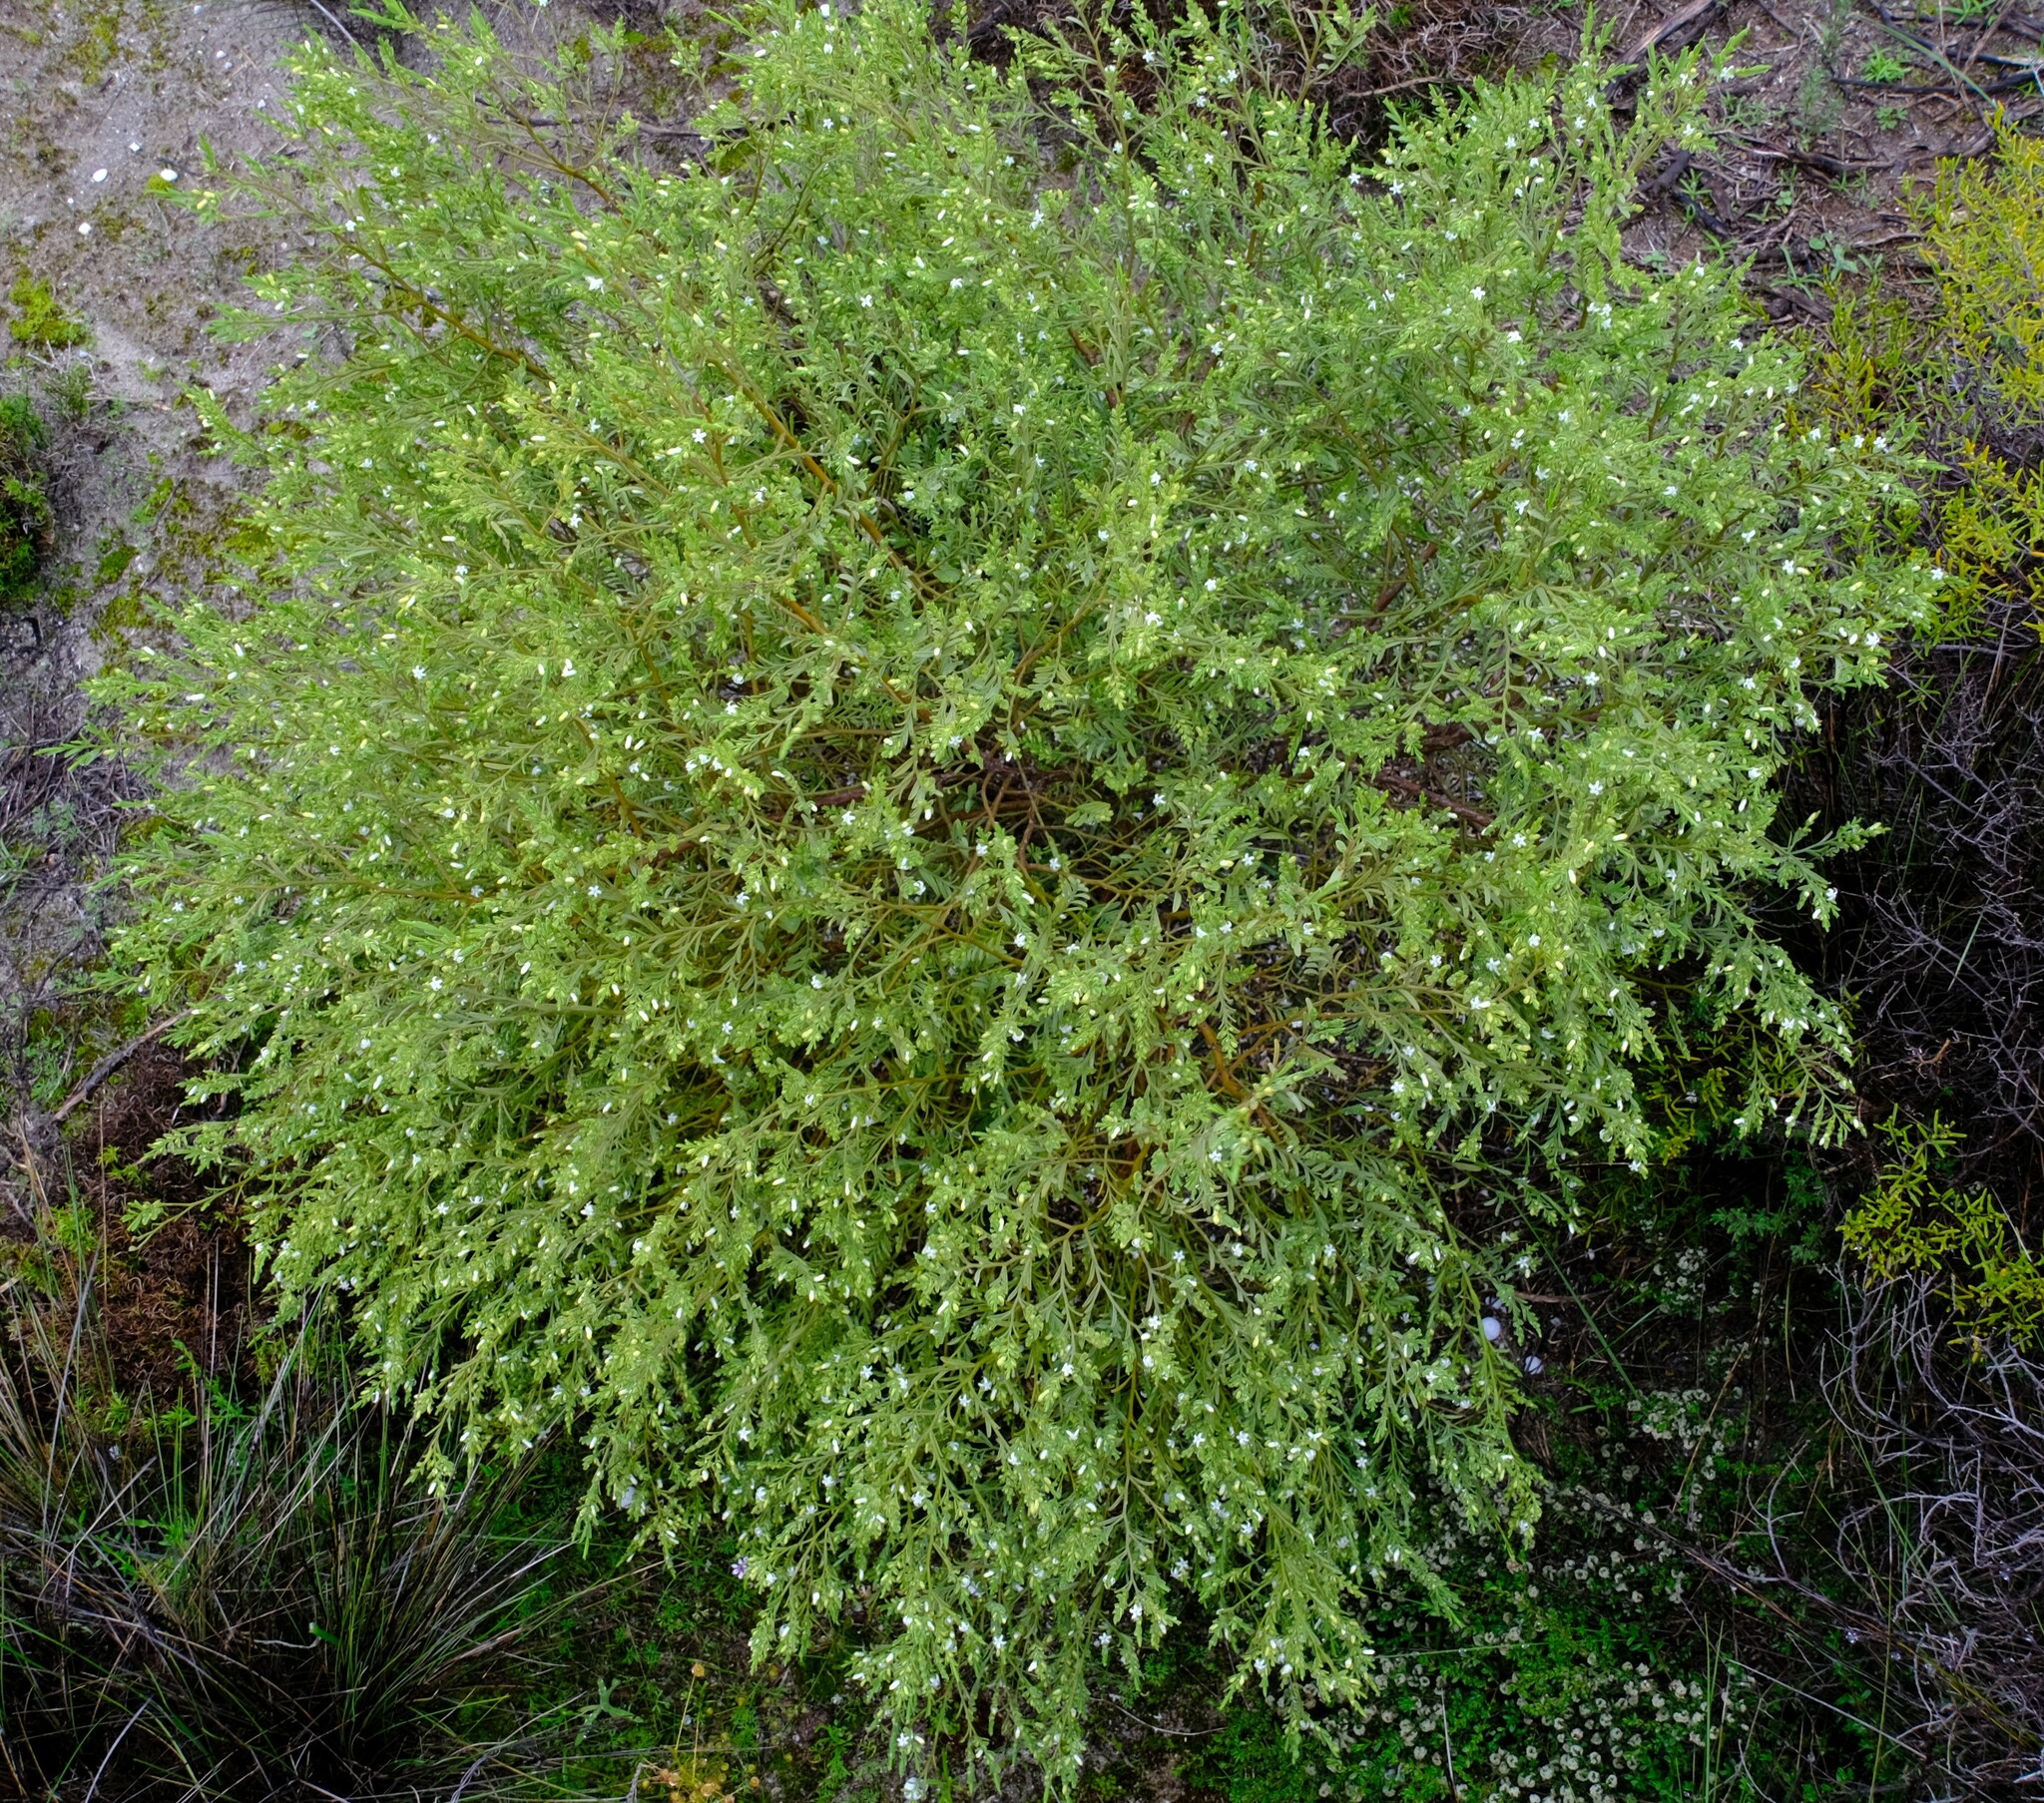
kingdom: Plantae
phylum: Tracheophyta
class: Magnoliopsida
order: Santalales
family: Olacaceae
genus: Olax
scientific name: Olax benthamiana
